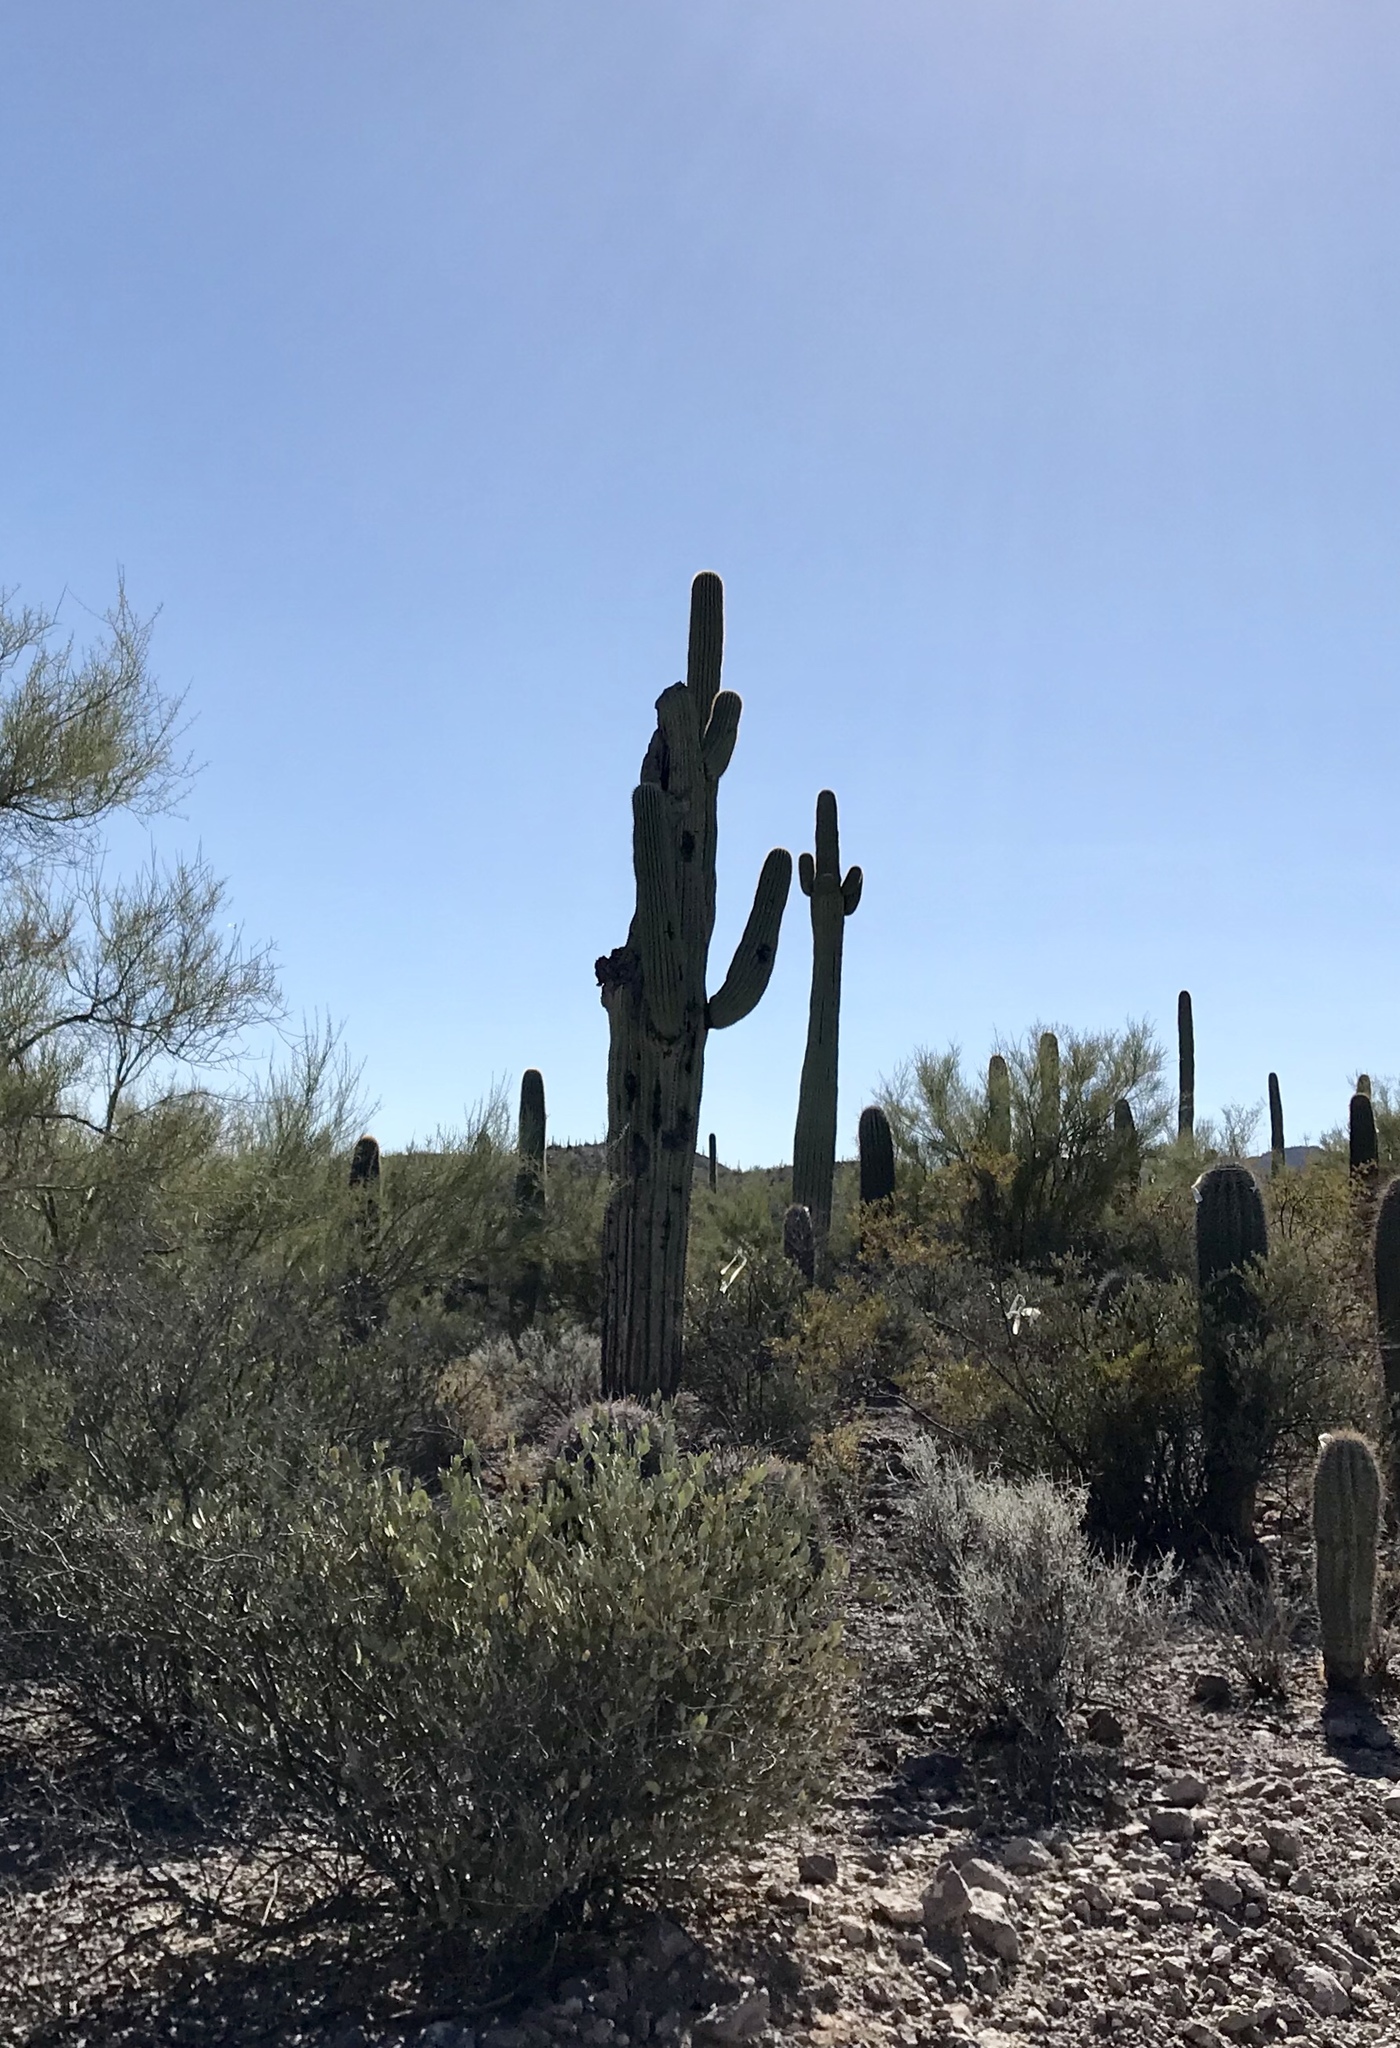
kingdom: Plantae
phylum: Tracheophyta
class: Magnoliopsida
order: Caryophyllales
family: Simmondsiaceae
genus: Simmondsia
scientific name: Simmondsia chinensis
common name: Jojoba
